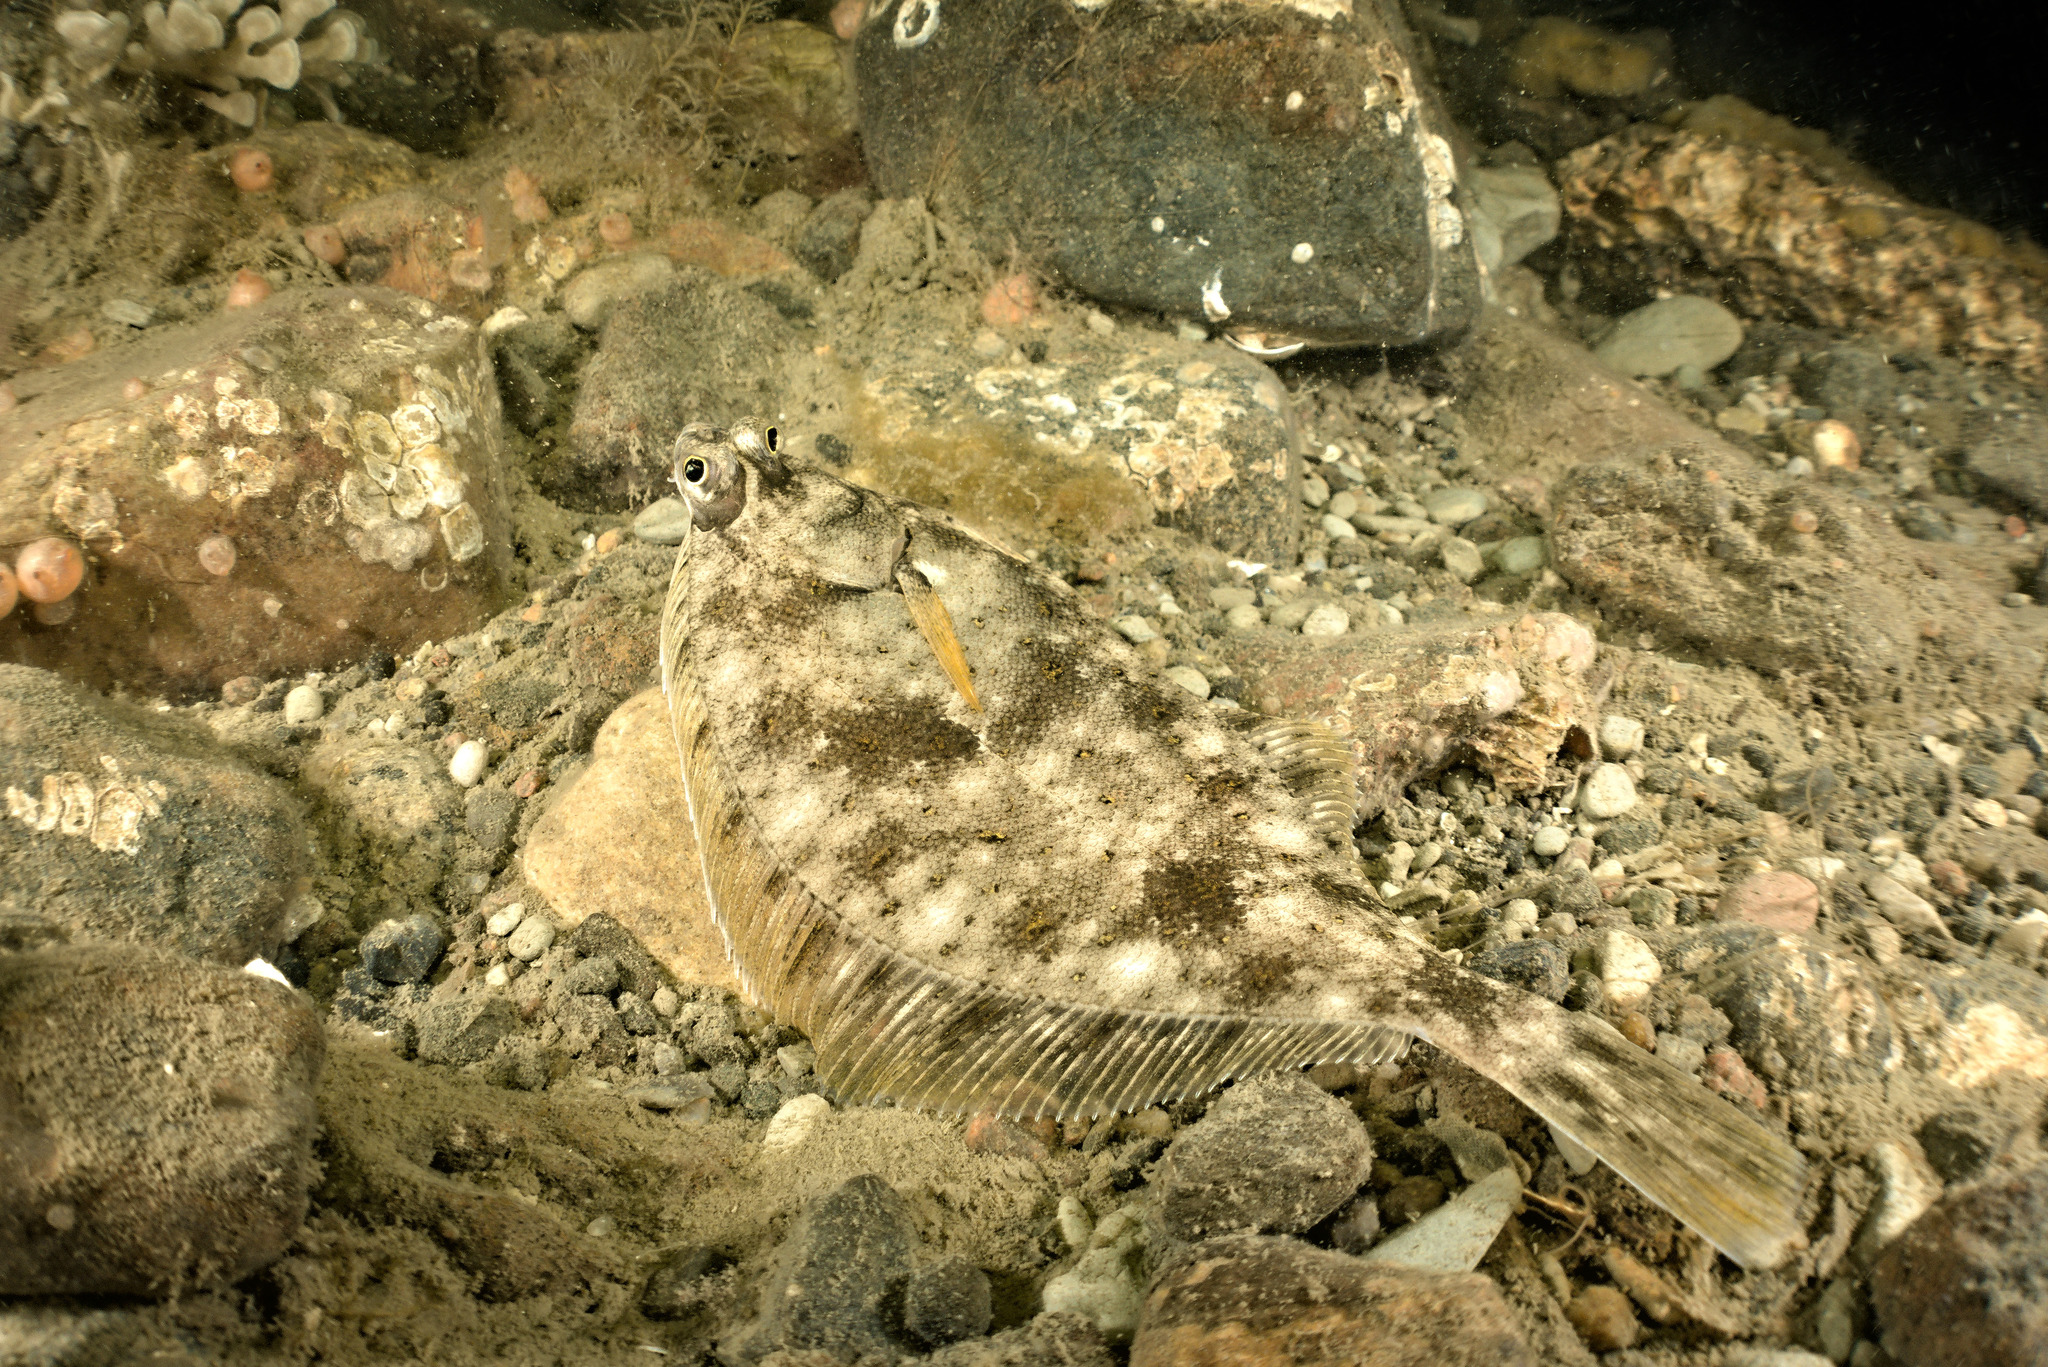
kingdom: Animalia
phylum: Chordata
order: Pleuronectiformes
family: Pleuronectidae
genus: Limanda
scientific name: Limanda limanda
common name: Dab
